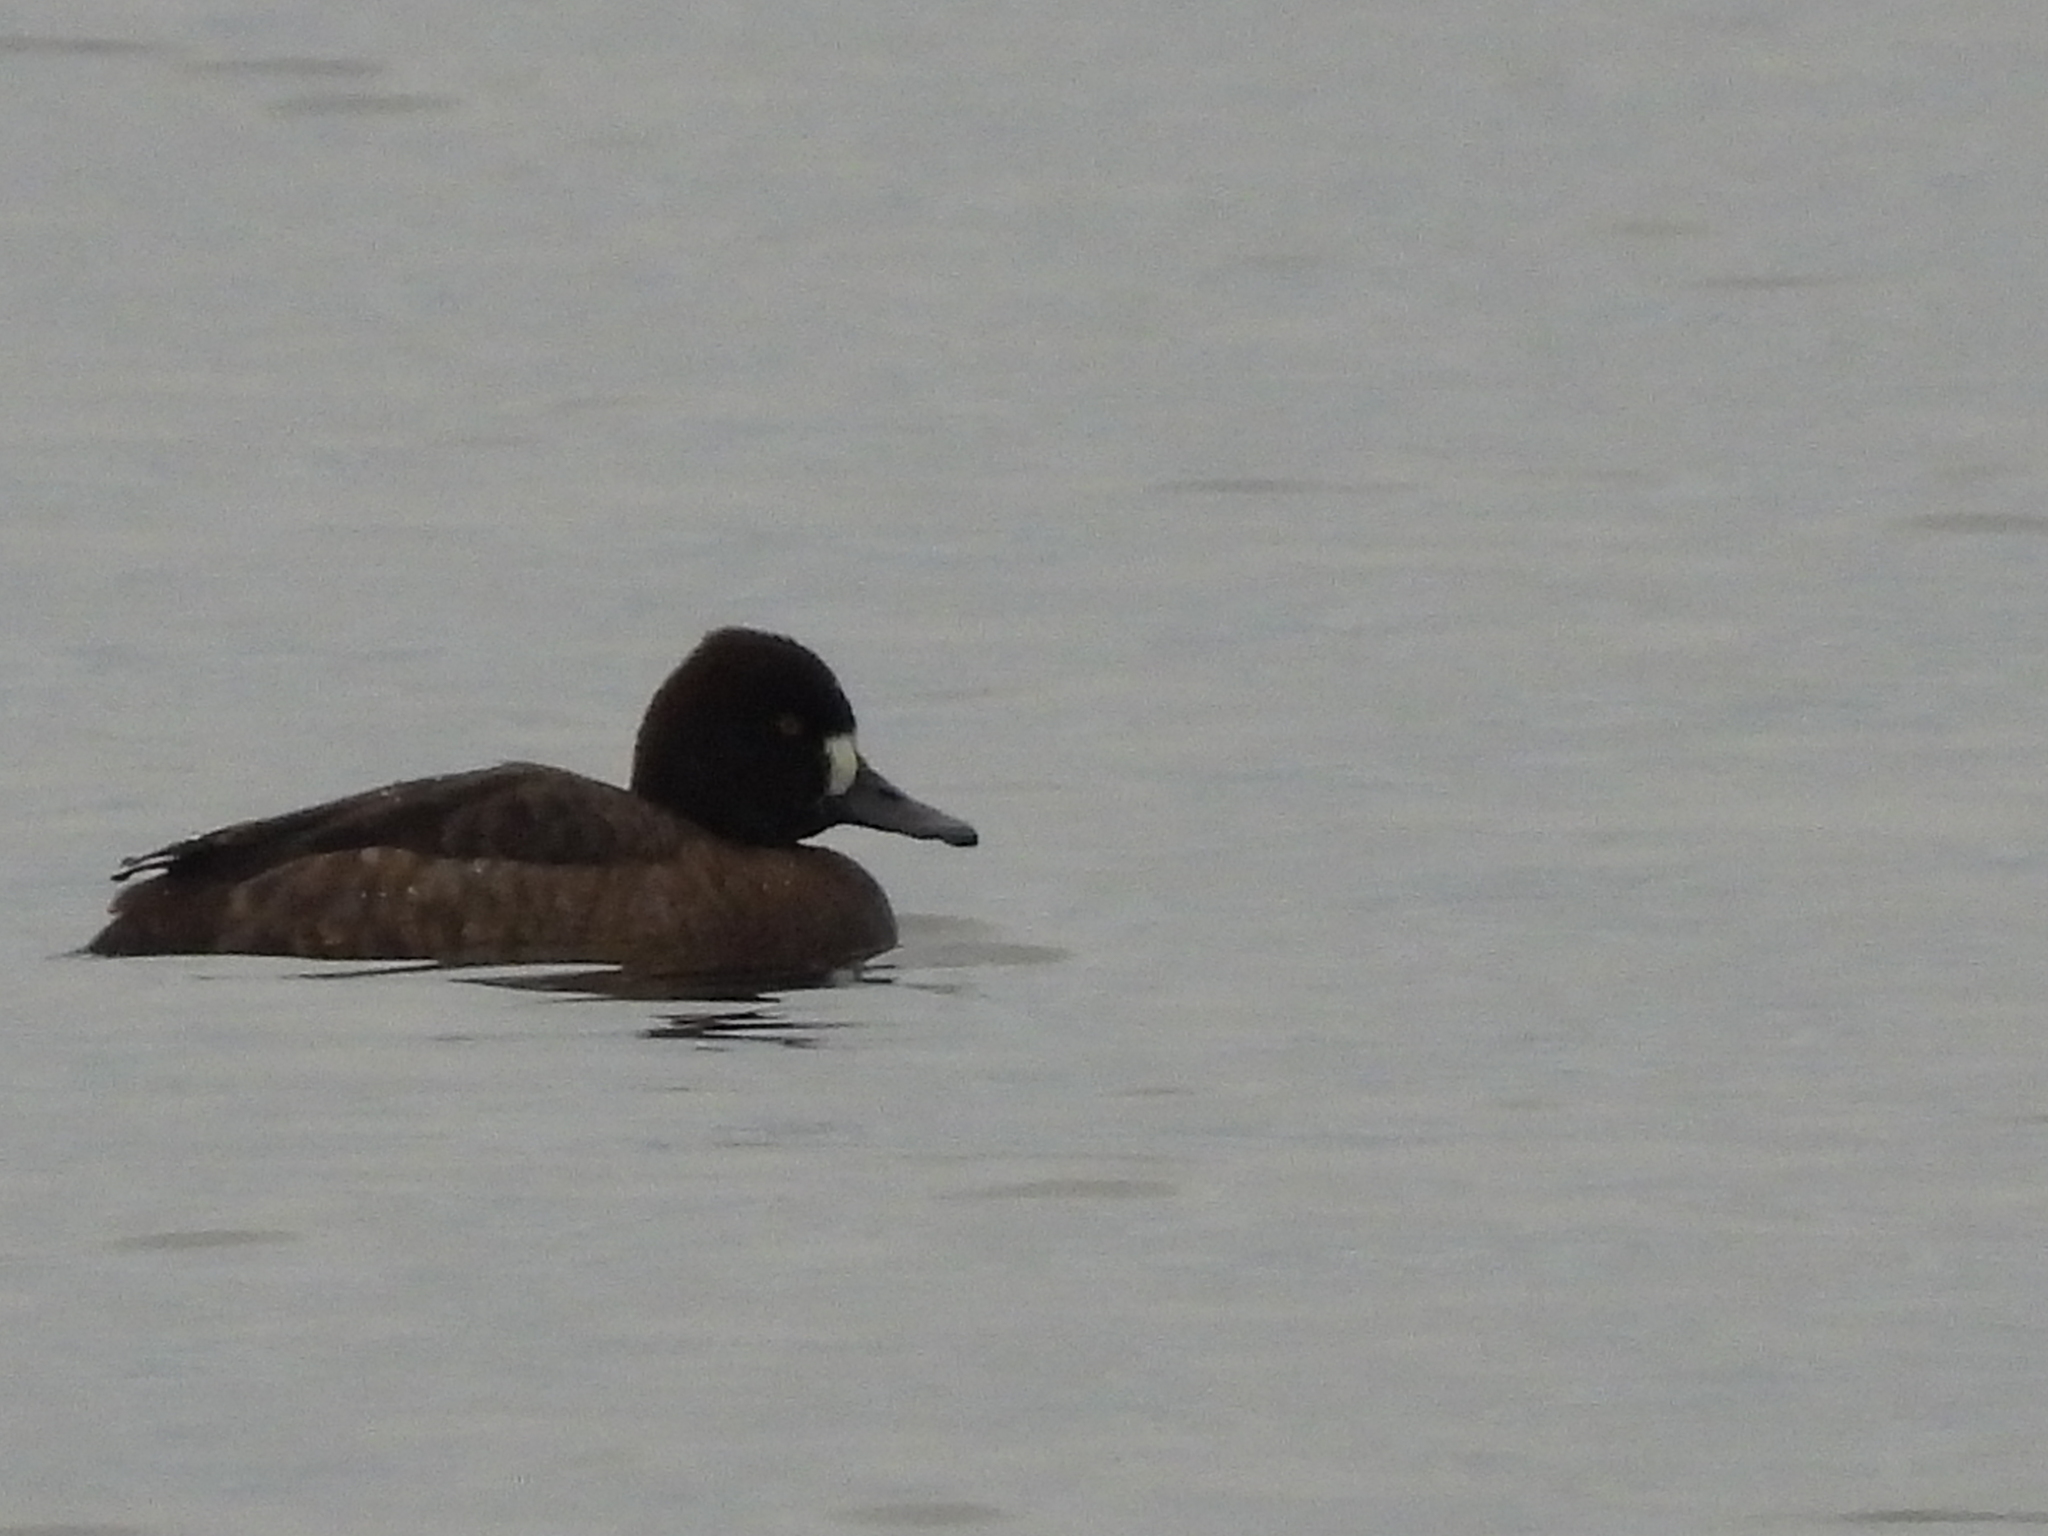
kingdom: Animalia
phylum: Chordata
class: Aves
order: Anseriformes
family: Anatidae
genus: Aythya
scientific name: Aythya affinis
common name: Lesser scaup
